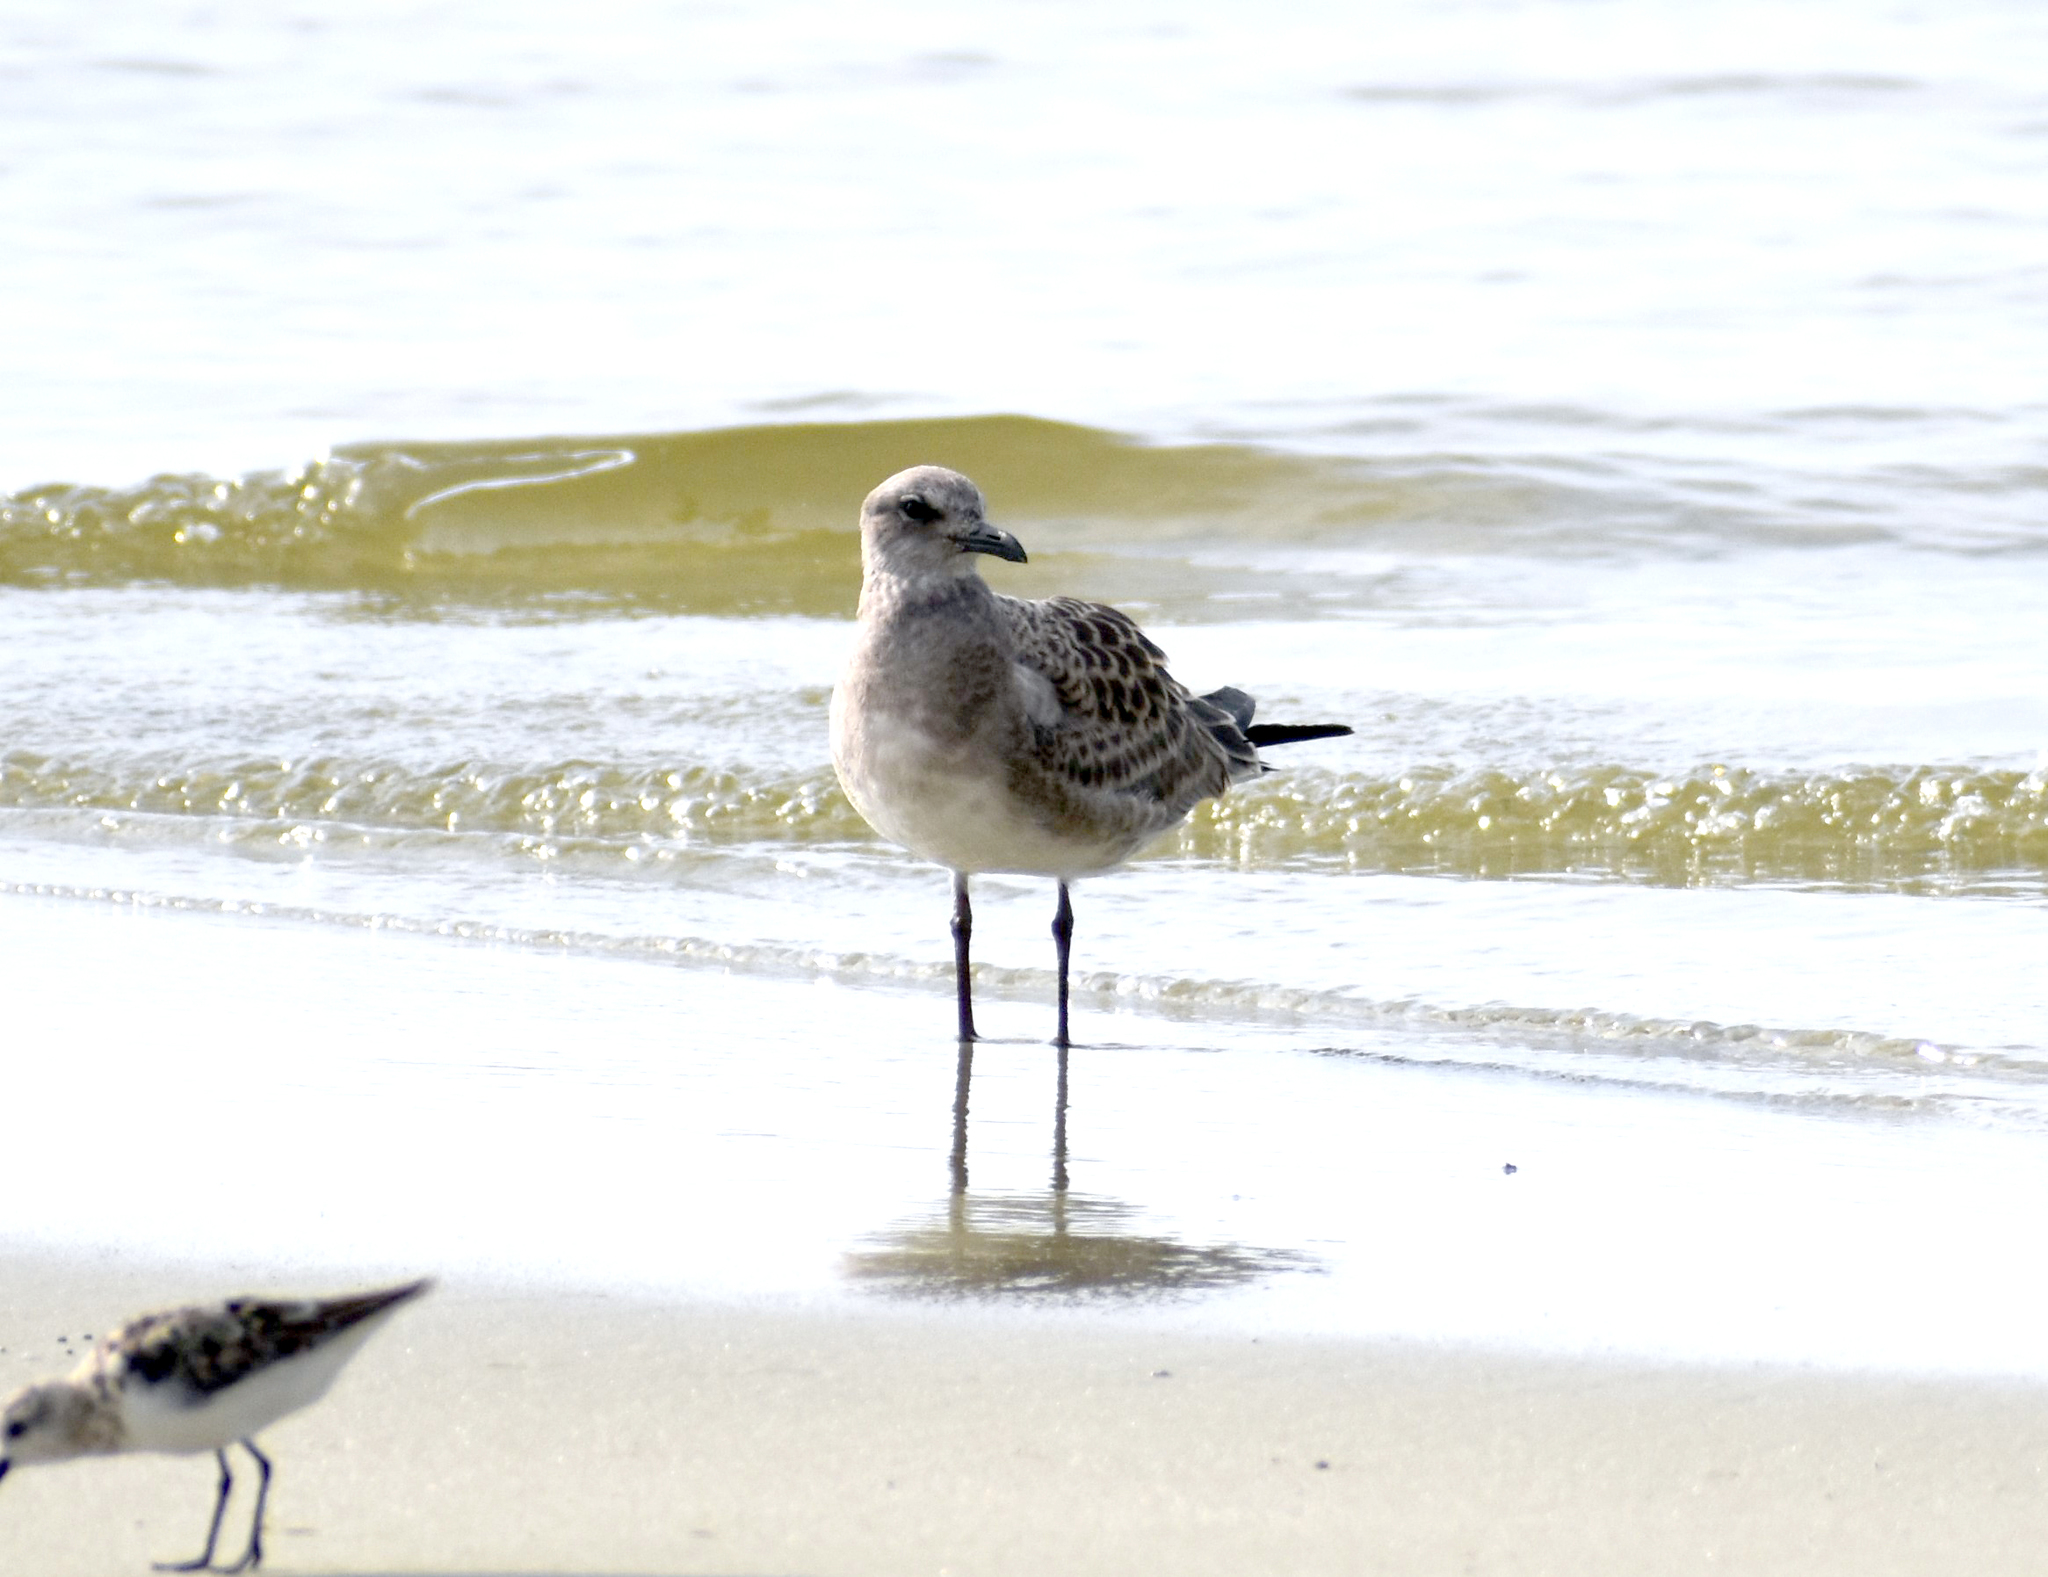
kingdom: Animalia
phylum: Chordata
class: Aves
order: Charadriiformes
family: Laridae
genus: Leucophaeus
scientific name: Leucophaeus atricilla
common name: Laughing gull
